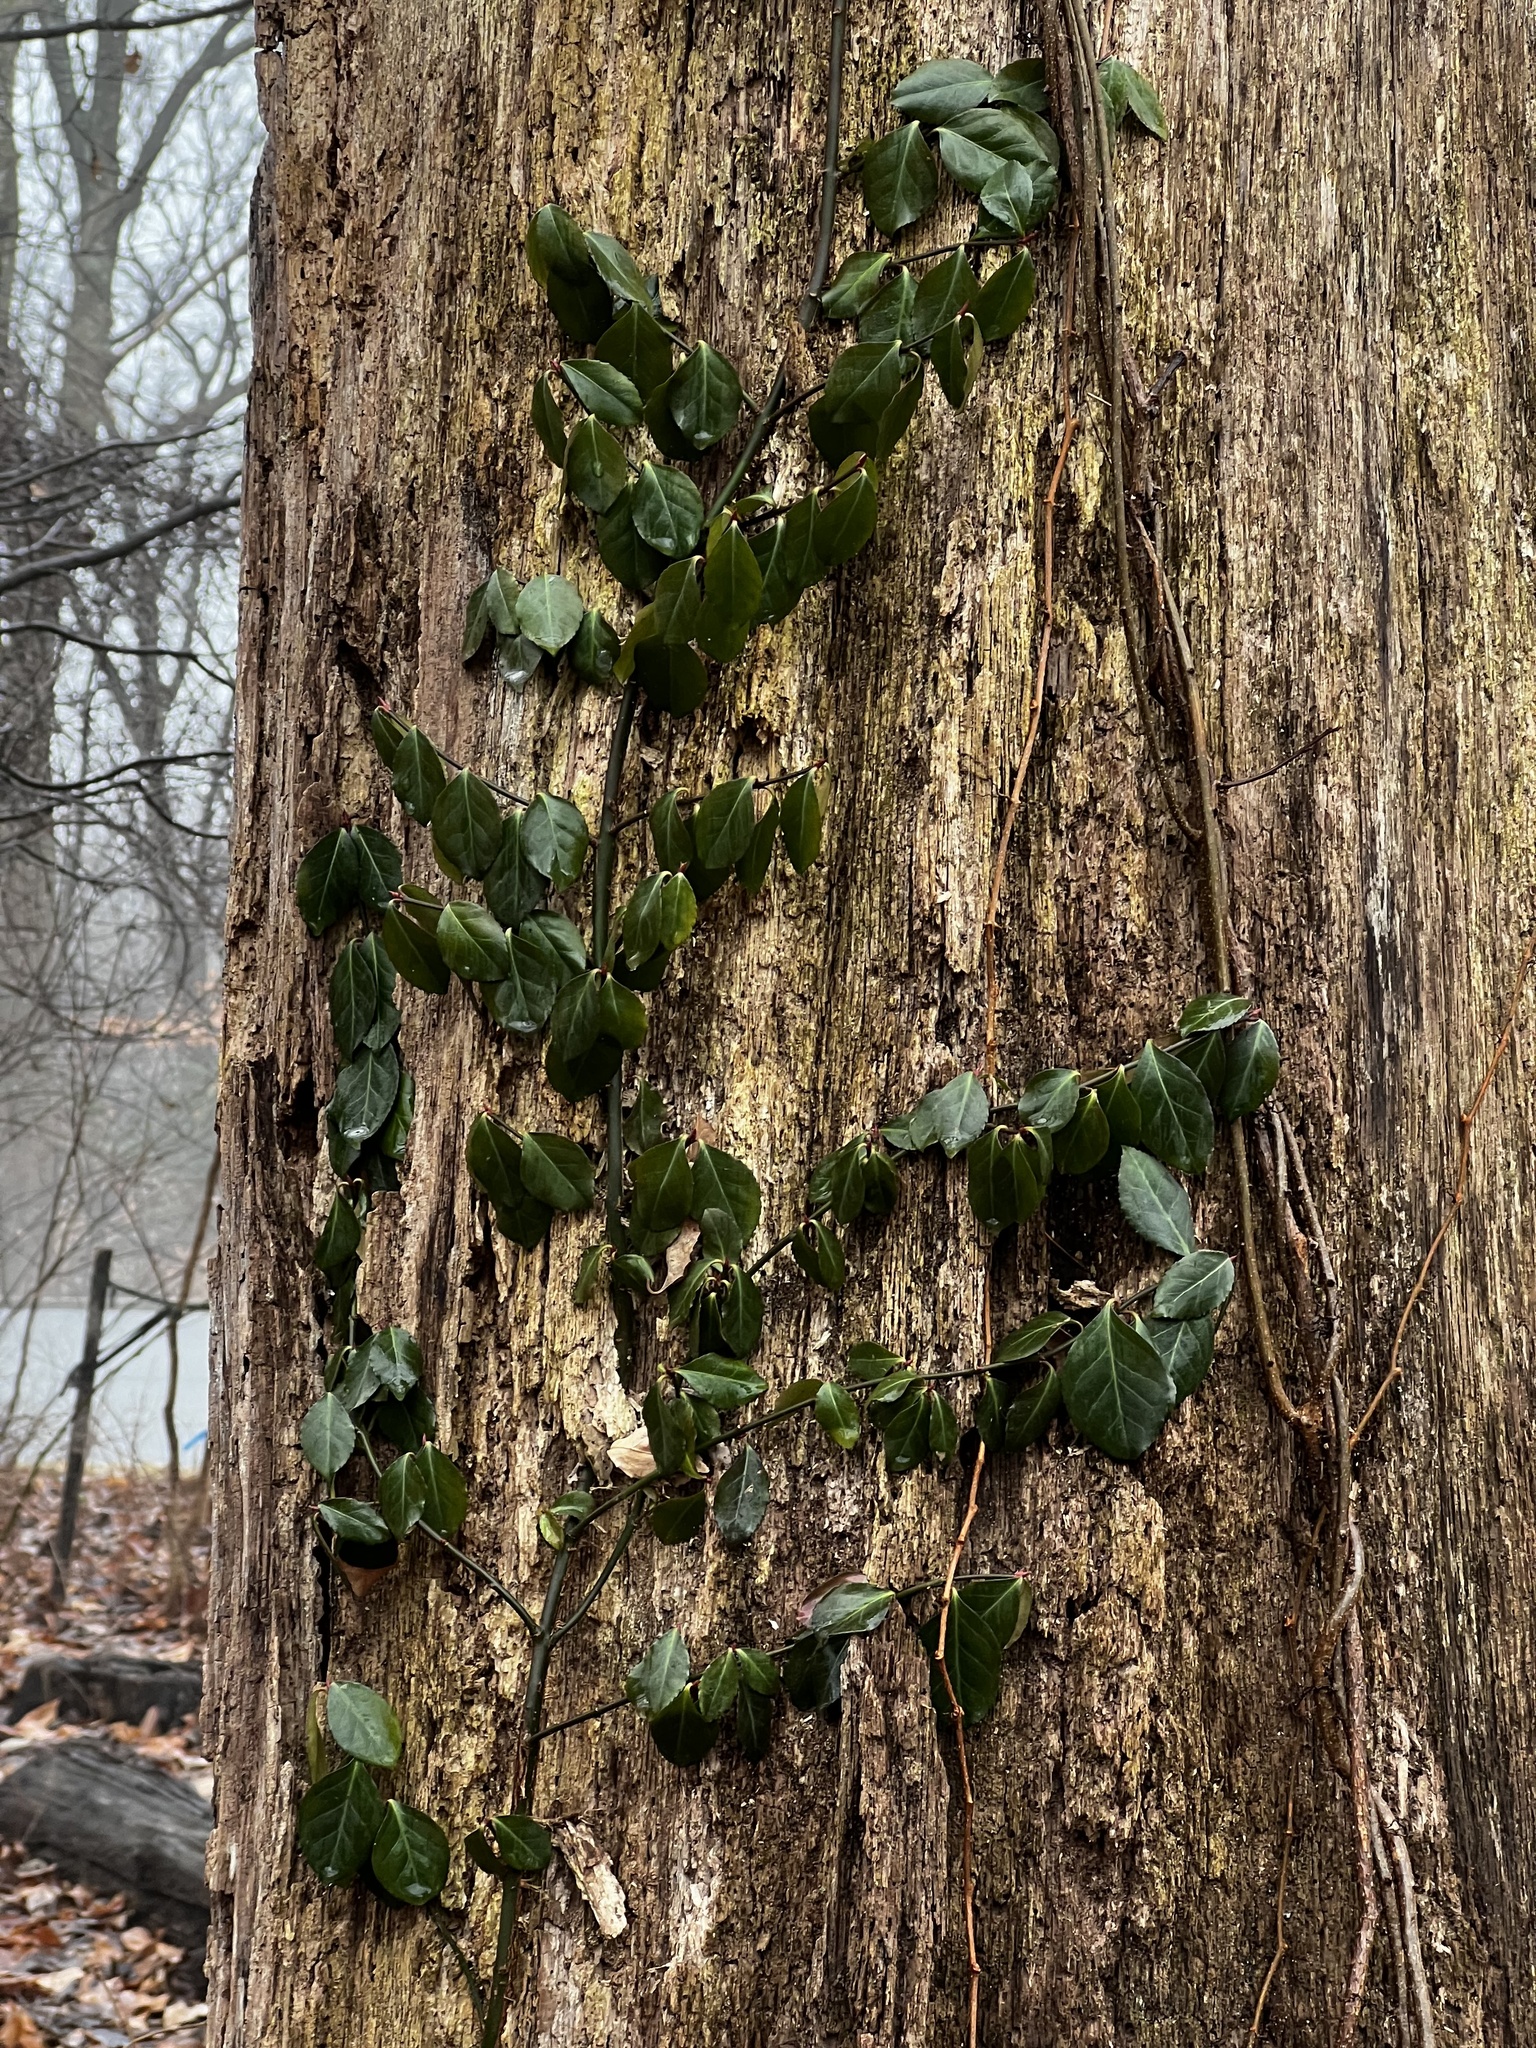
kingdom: Plantae
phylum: Tracheophyta
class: Magnoliopsida
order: Celastrales
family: Celastraceae
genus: Euonymus
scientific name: Euonymus fortunei
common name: Climbing euonymus
